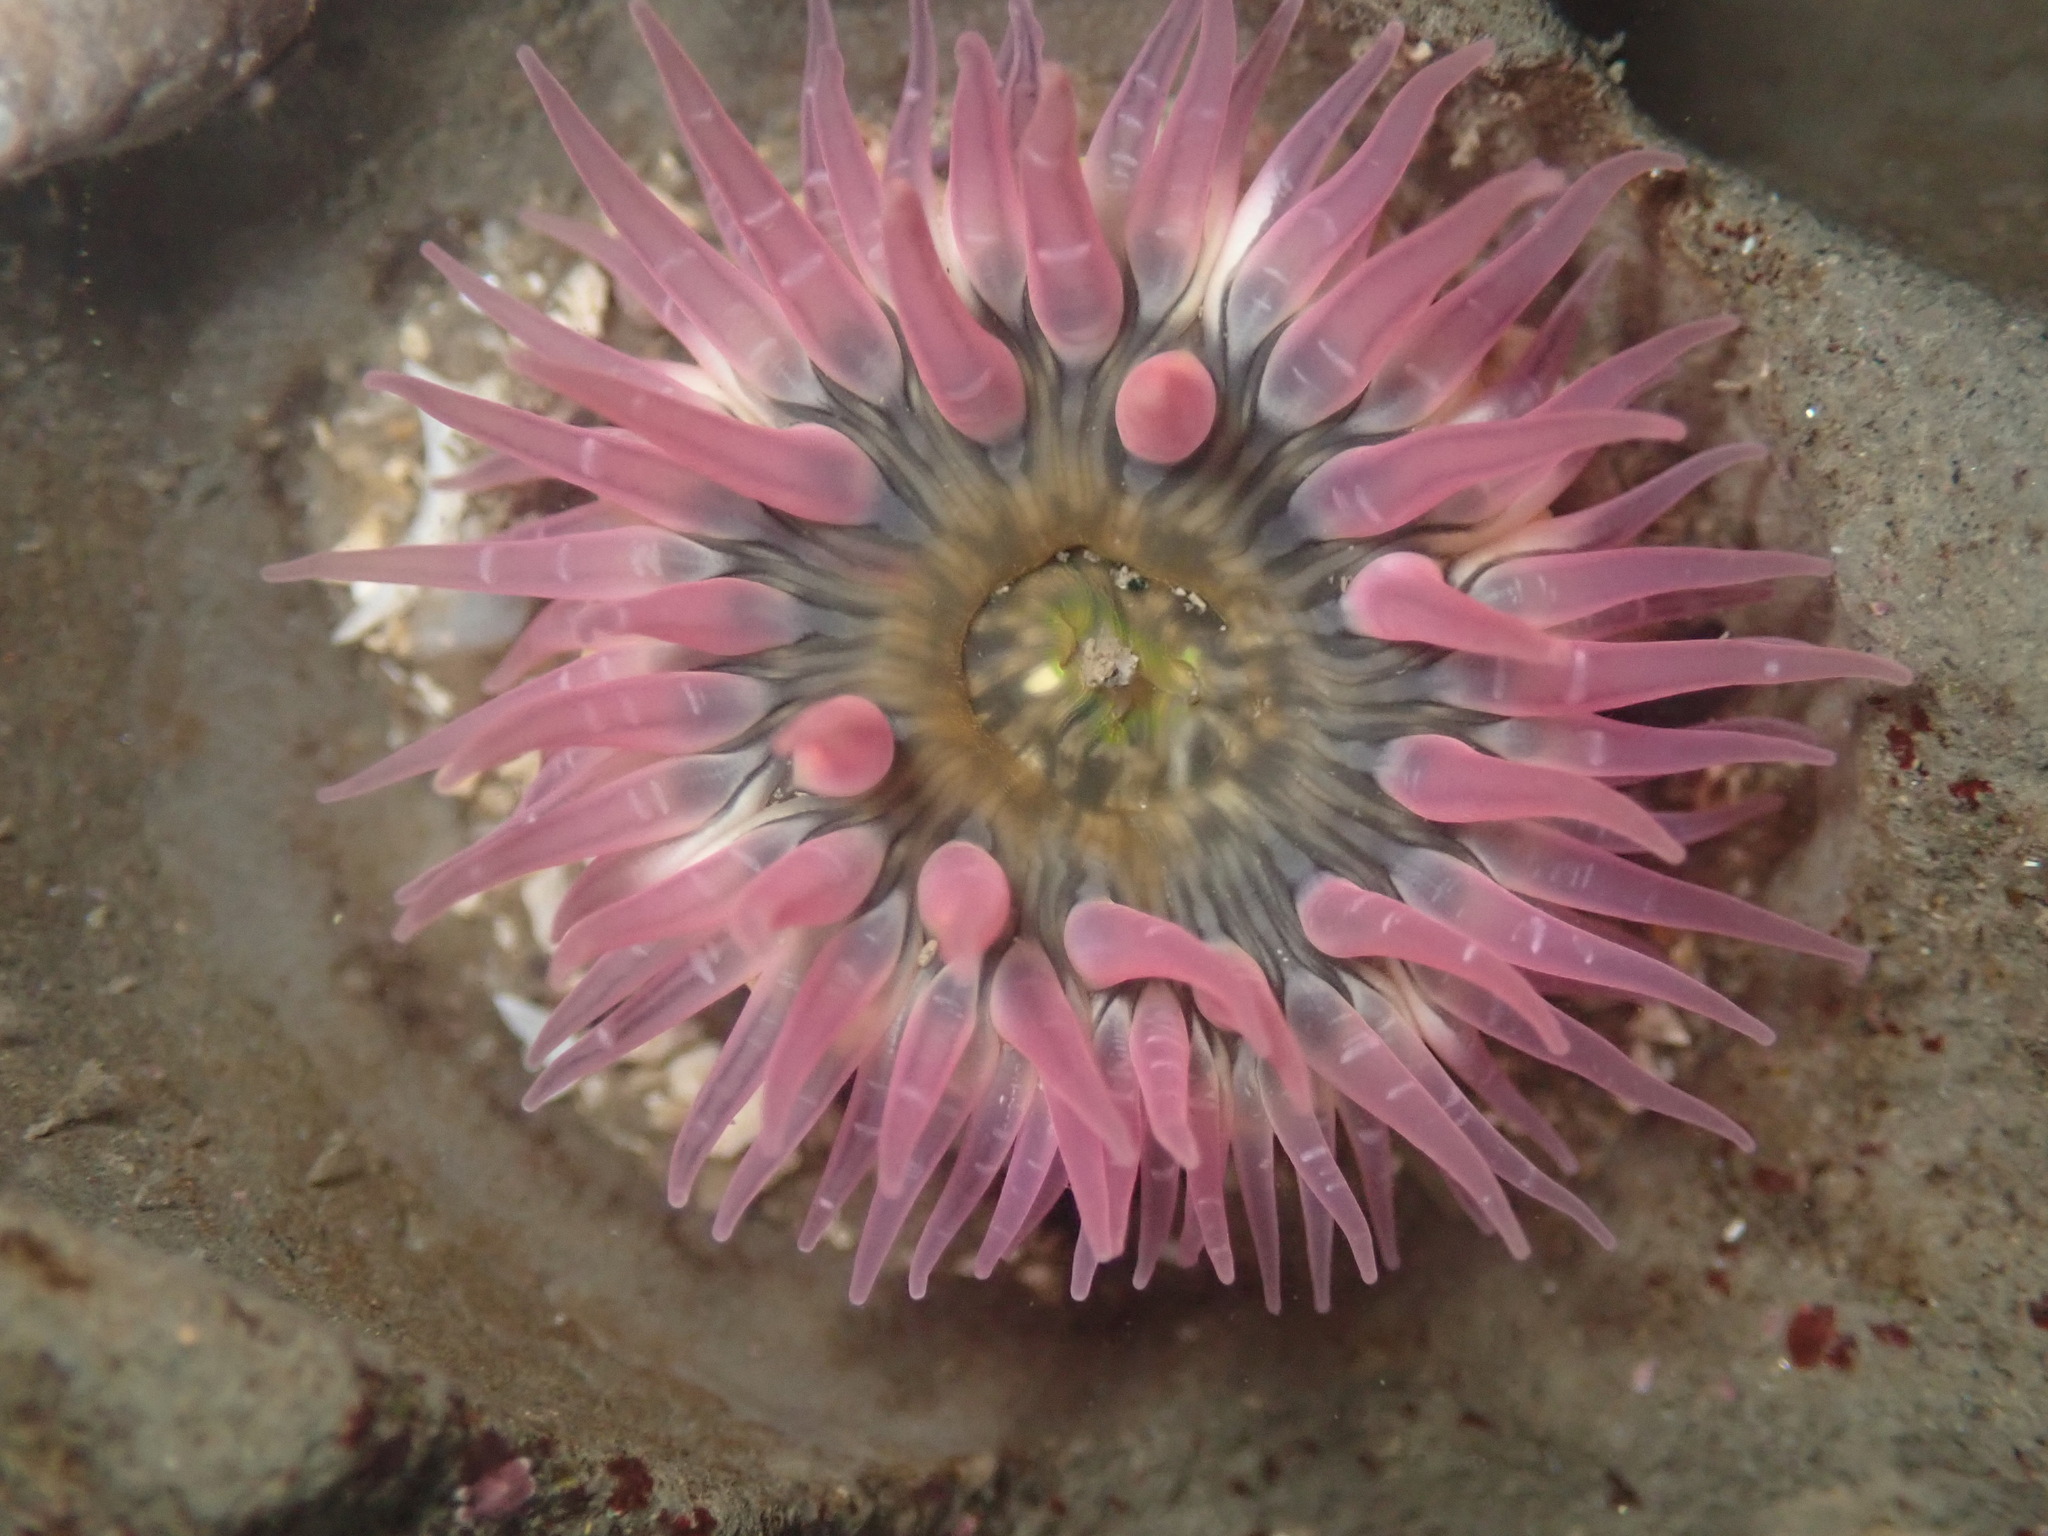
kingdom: Animalia
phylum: Cnidaria
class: Anthozoa
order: Actiniaria
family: Actiniidae
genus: Anthopleura
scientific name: Anthopleura artemisia
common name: Buried sea anemone
